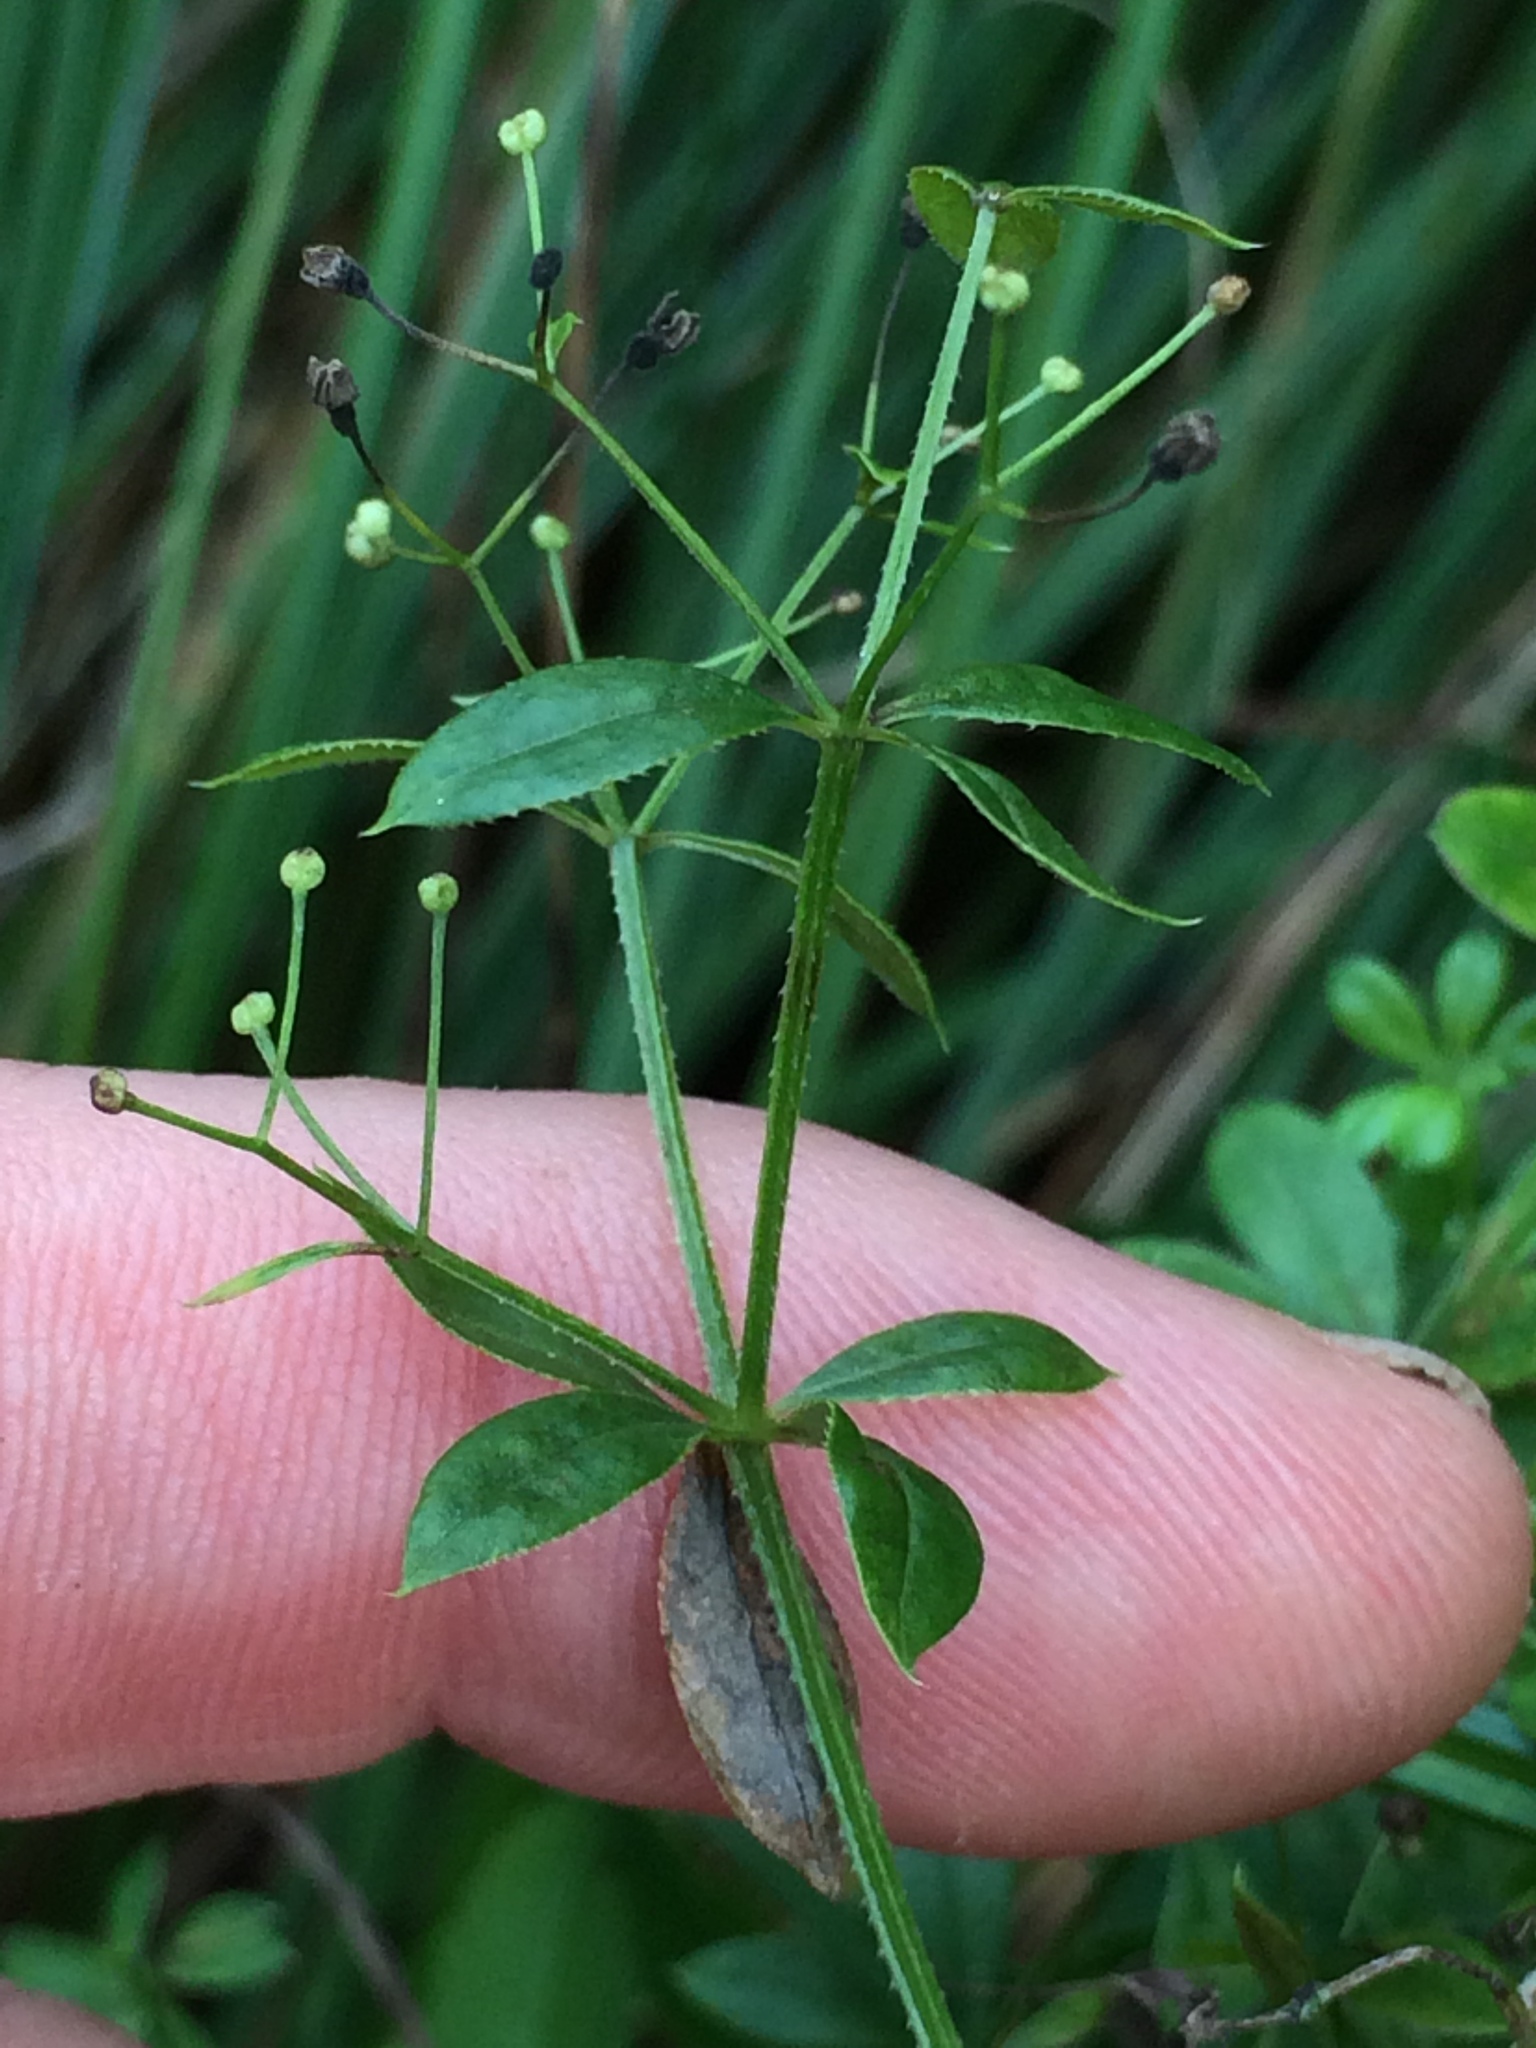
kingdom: Plantae
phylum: Tracheophyta
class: Magnoliopsida
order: Gentianales
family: Rubiaceae
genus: Galium
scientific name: Galium asprellum
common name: Rough bedstraw
